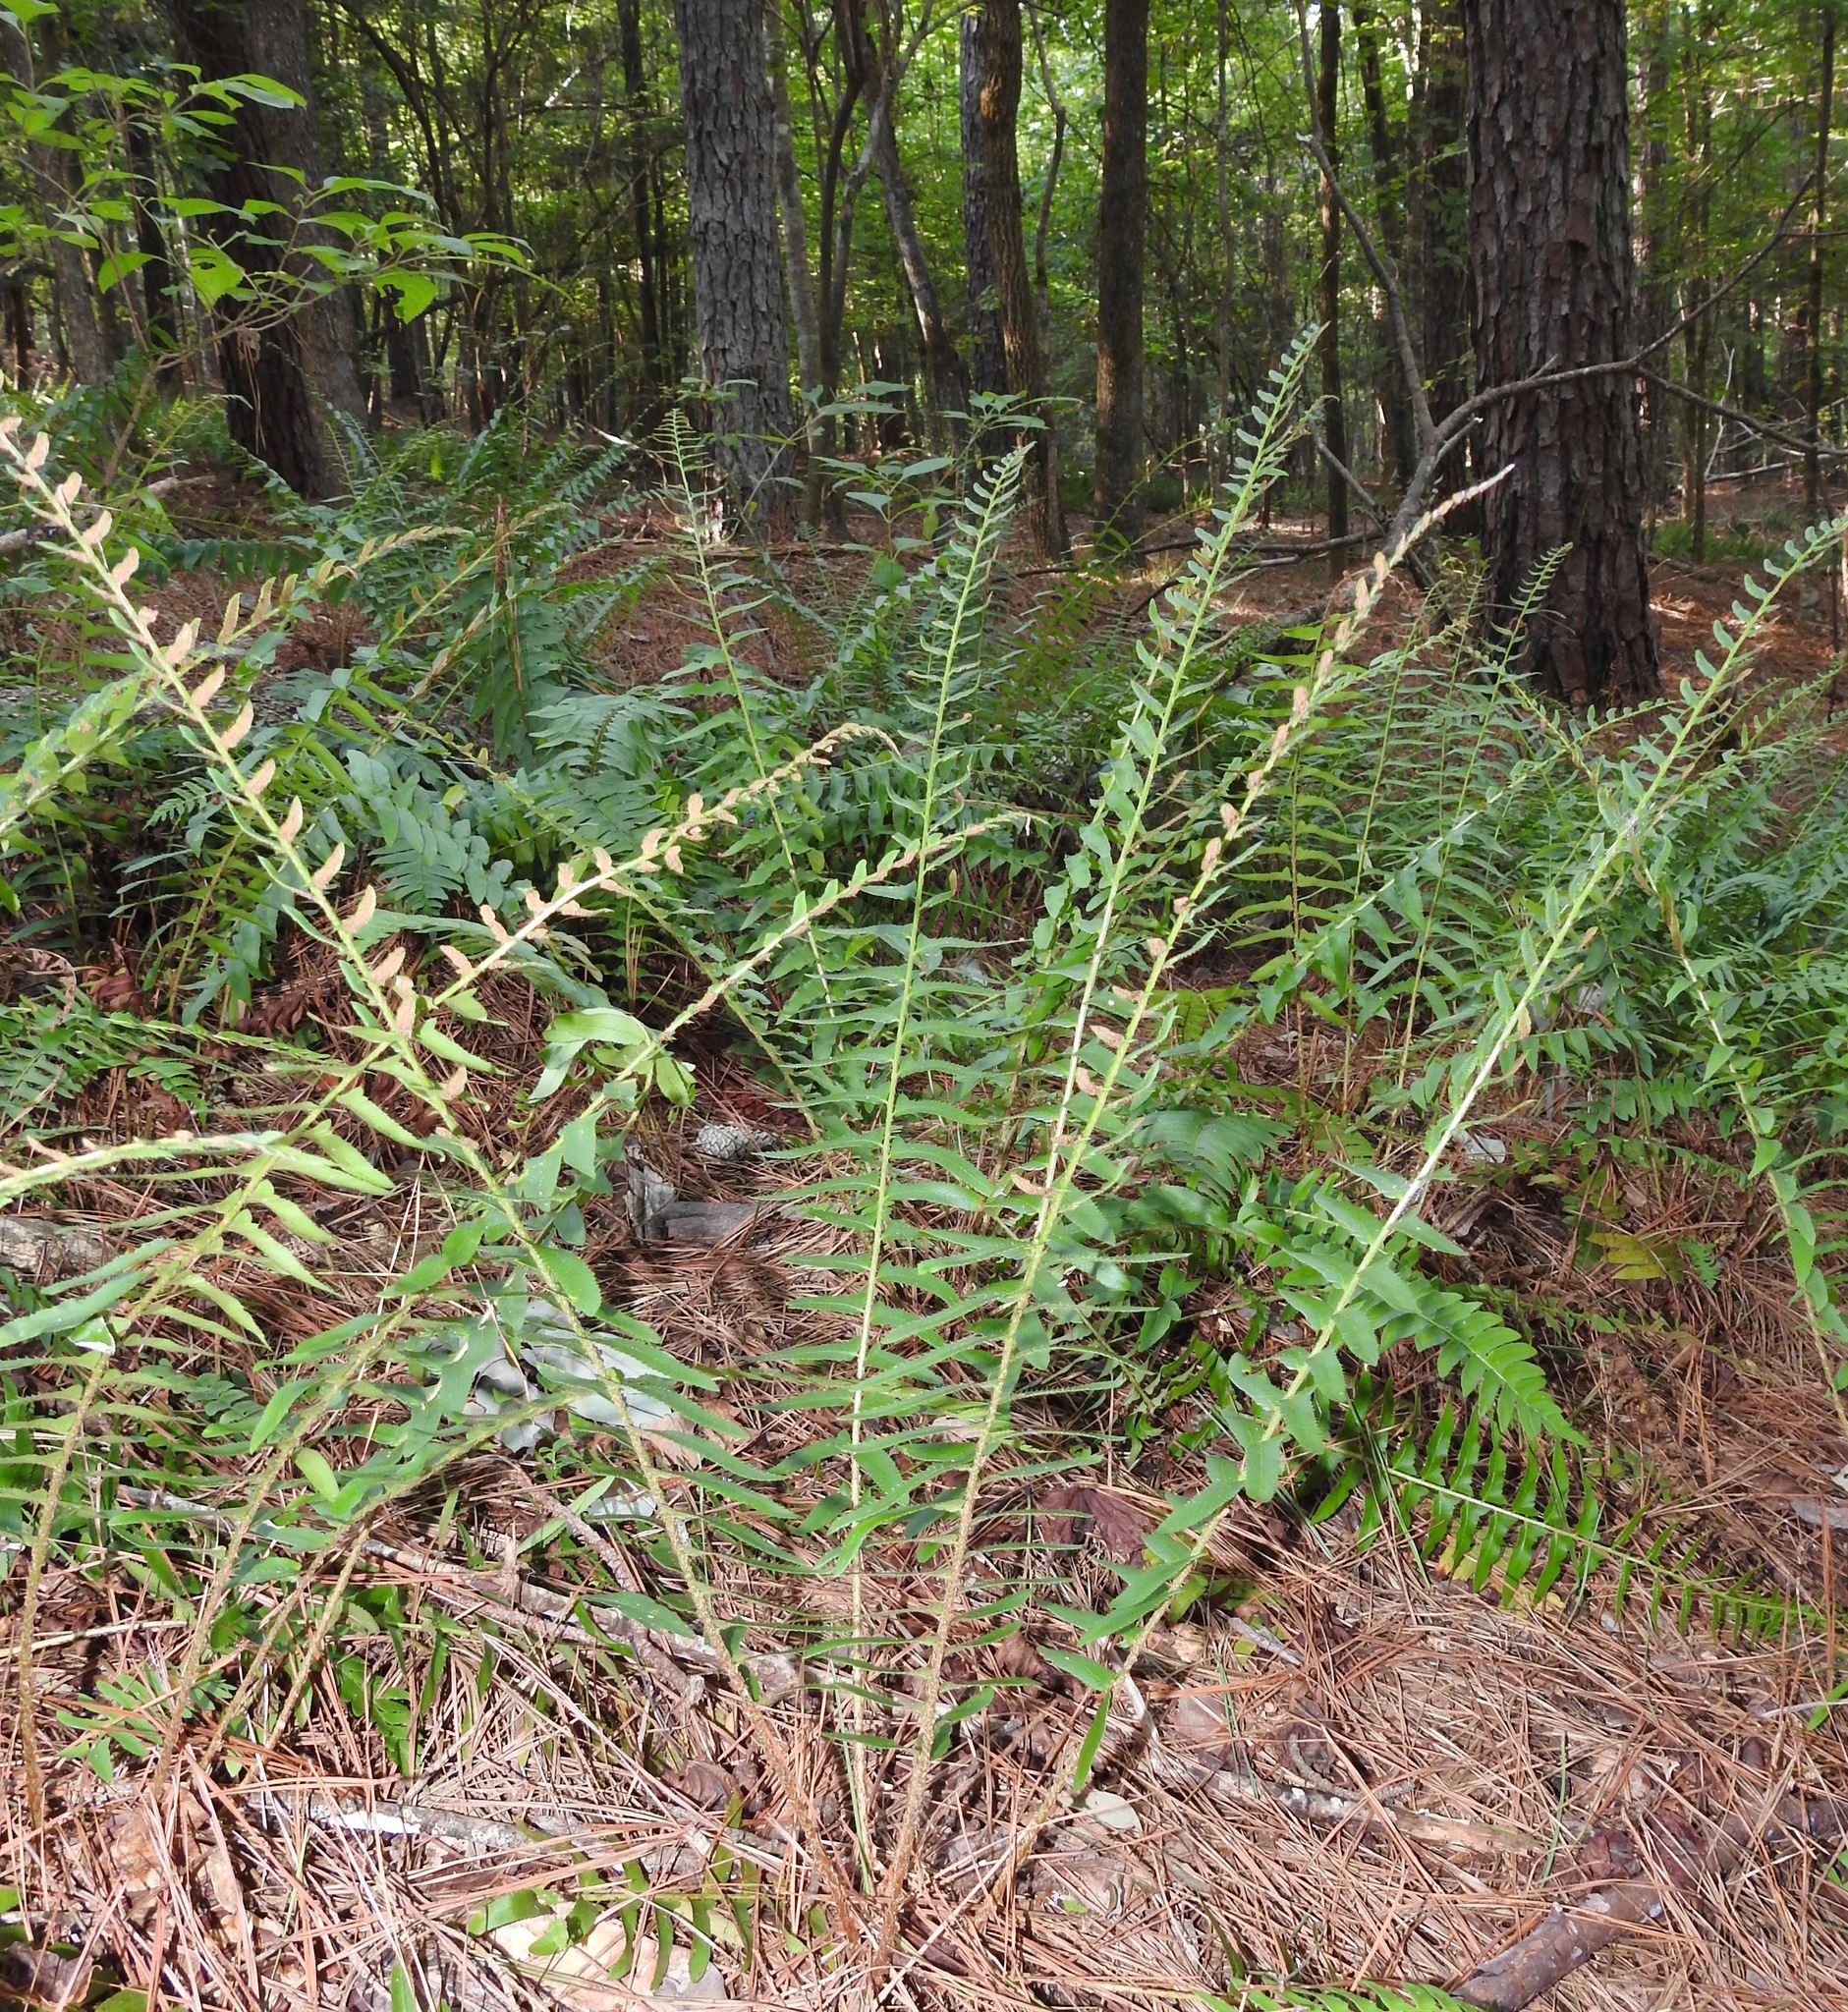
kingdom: Plantae
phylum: Tracheophyta
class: Polypodiopsida
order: Polypodiales
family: Dryopteridaceae
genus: Polystichum
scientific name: Polystichum acrostichoides
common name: Christmas fern
